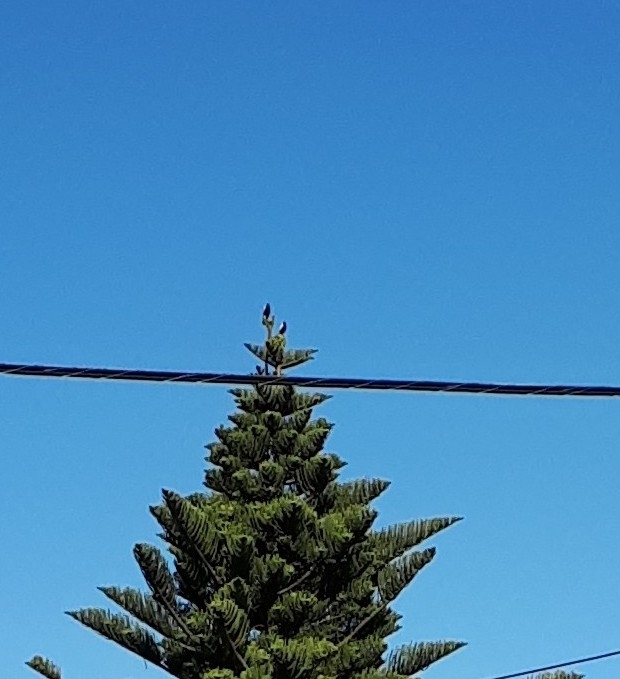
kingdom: Animalia
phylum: Chordata
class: Aves
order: Passeriformes
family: Cracticidae
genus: Gymnorhina
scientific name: Gymnorhina tibicen
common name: Australian magpie
